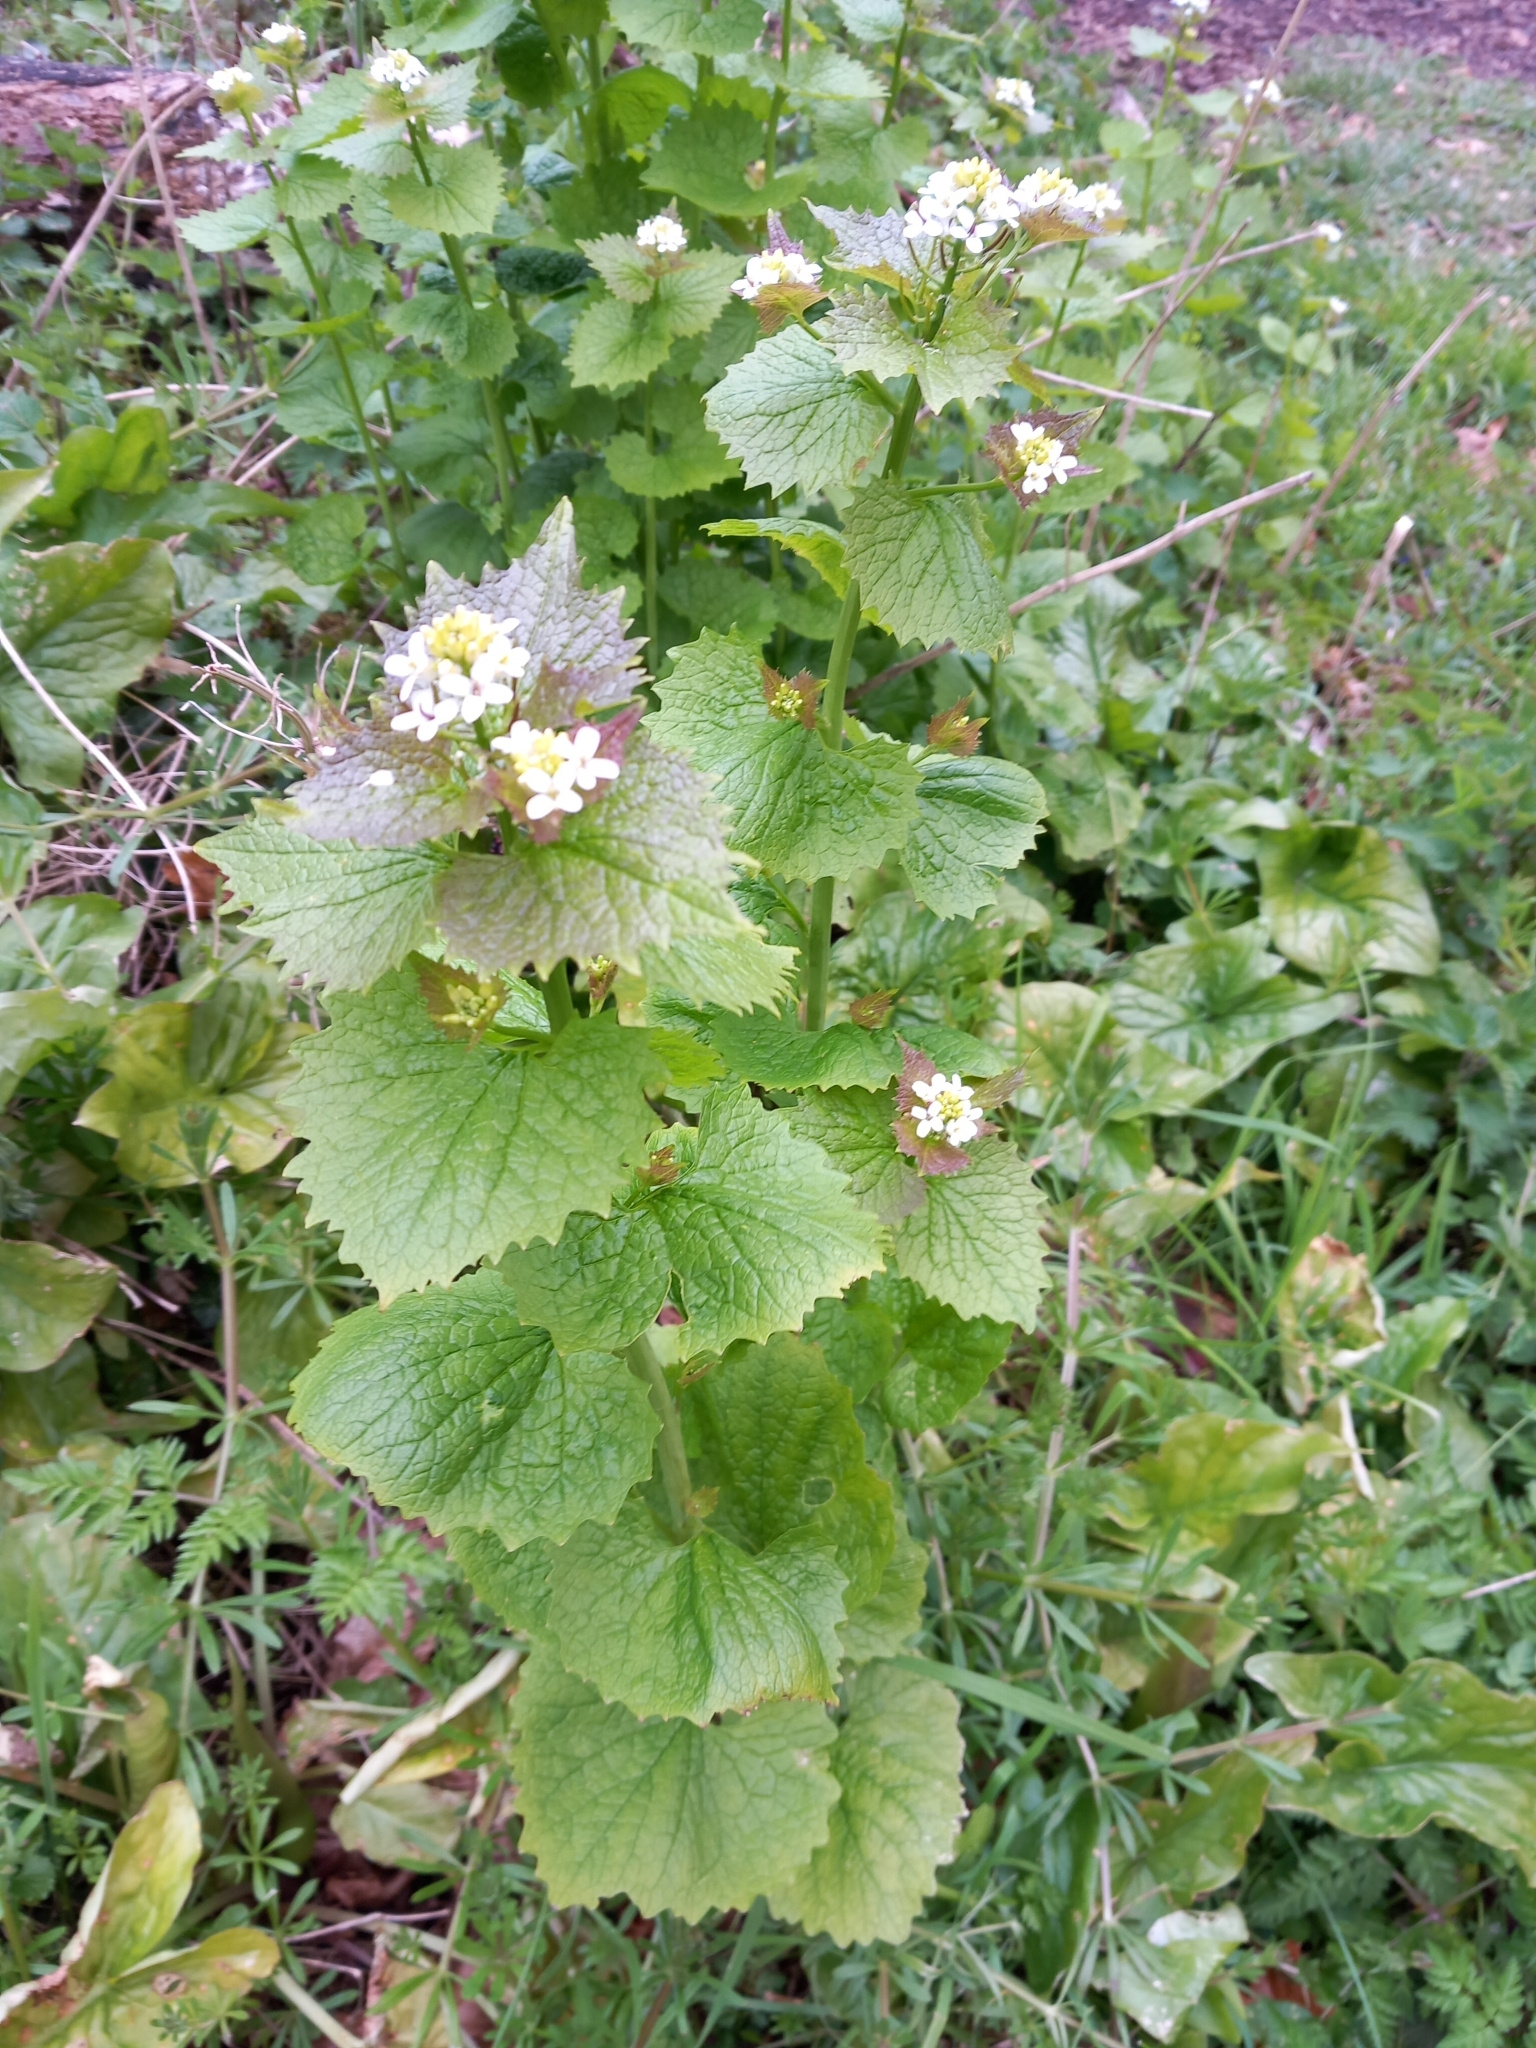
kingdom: Plantae
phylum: Tracheophyta
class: Magnoliopsida
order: Brassicales
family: Brassicaceae
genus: Alliaria
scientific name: Alliaria petiolata
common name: Garlic mustard
